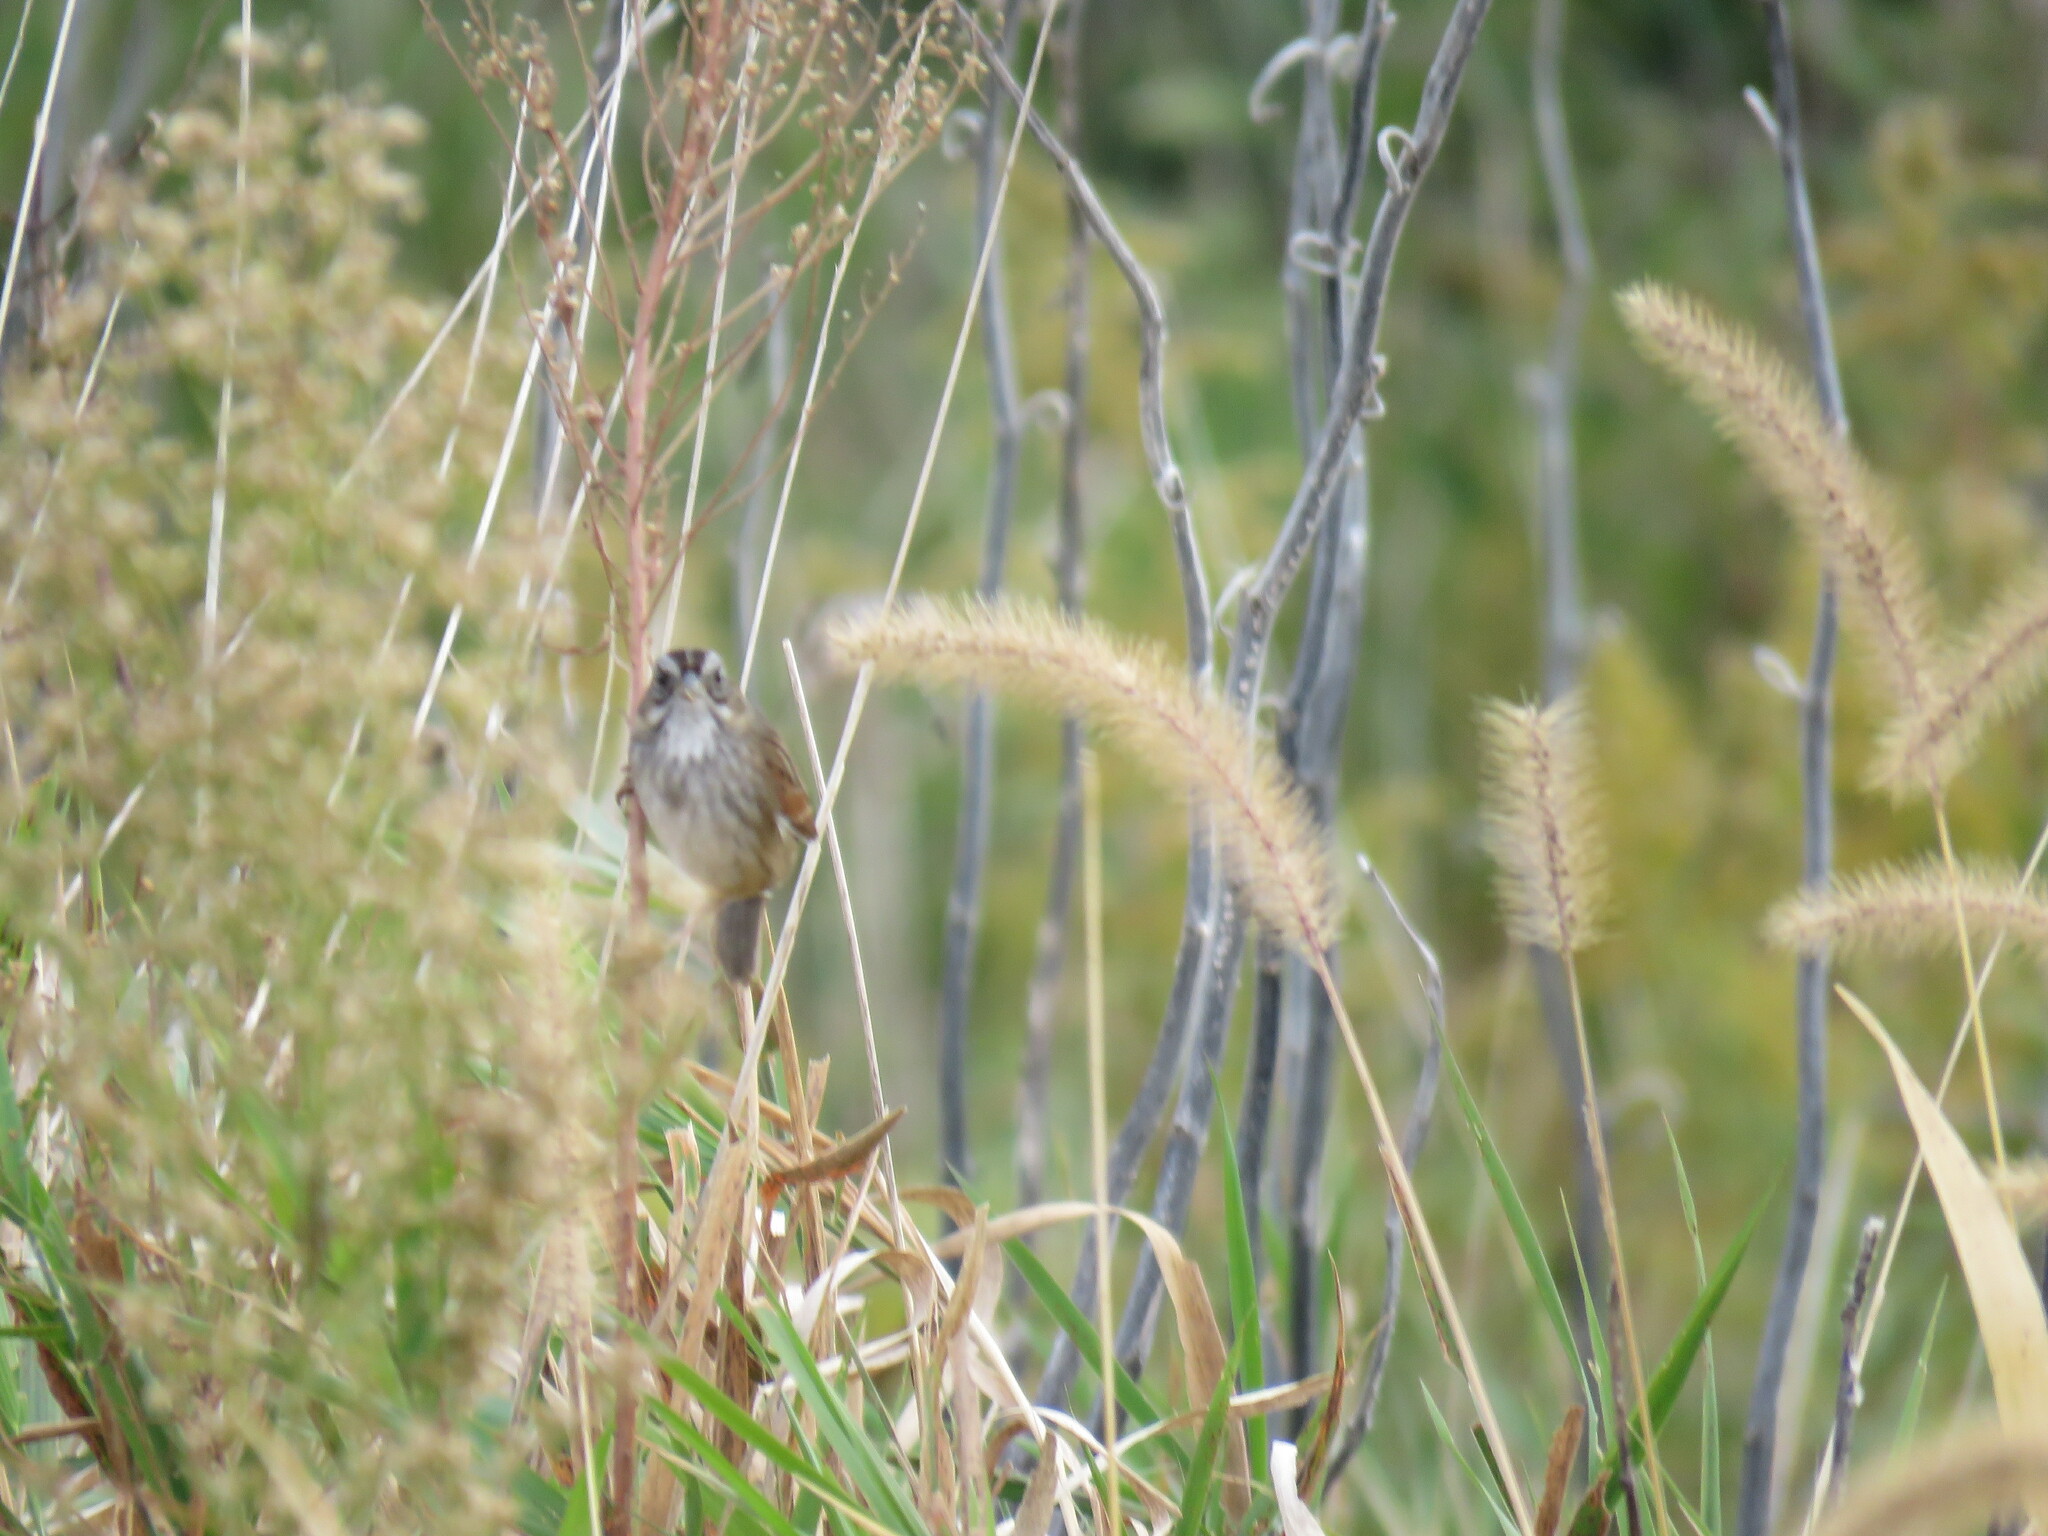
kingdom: Animalia
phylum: Chordata
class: Aves
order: Passeriformes
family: Passerellidae
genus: Melospiza
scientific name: Melospiza georgiana
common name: Swamp sparrow
